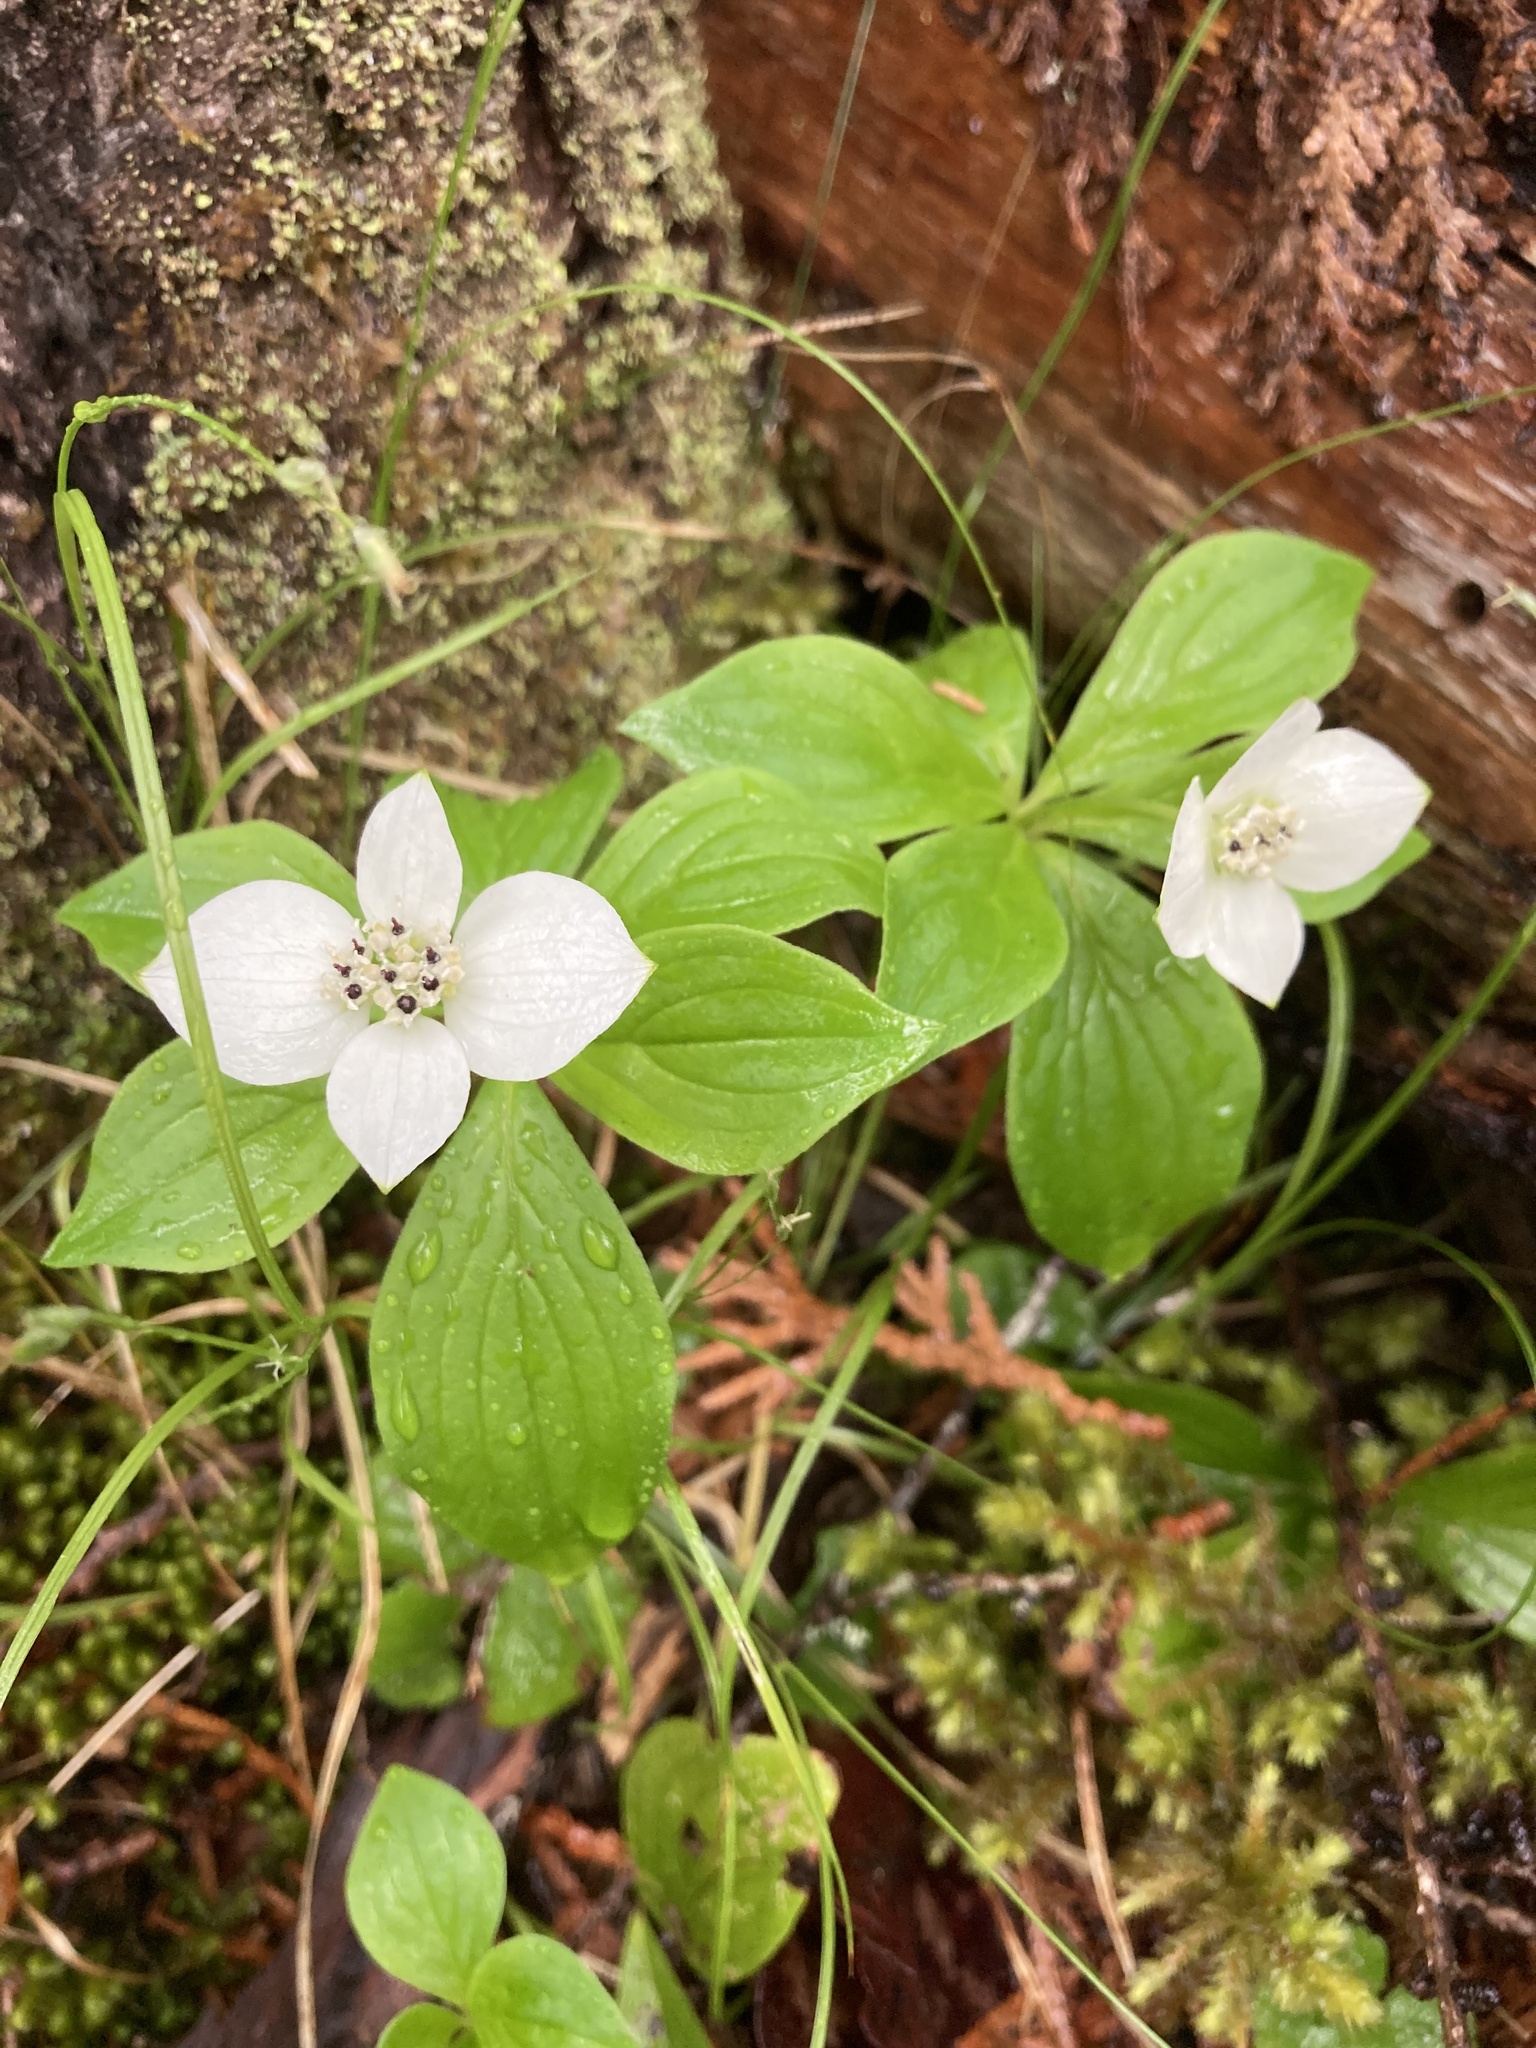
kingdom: Plantae
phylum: Tracheophyta
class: Magnoliopsida
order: Cornales
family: Cornaceae
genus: Cornus
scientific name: Cornus canadensis
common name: Creeping dogwood
